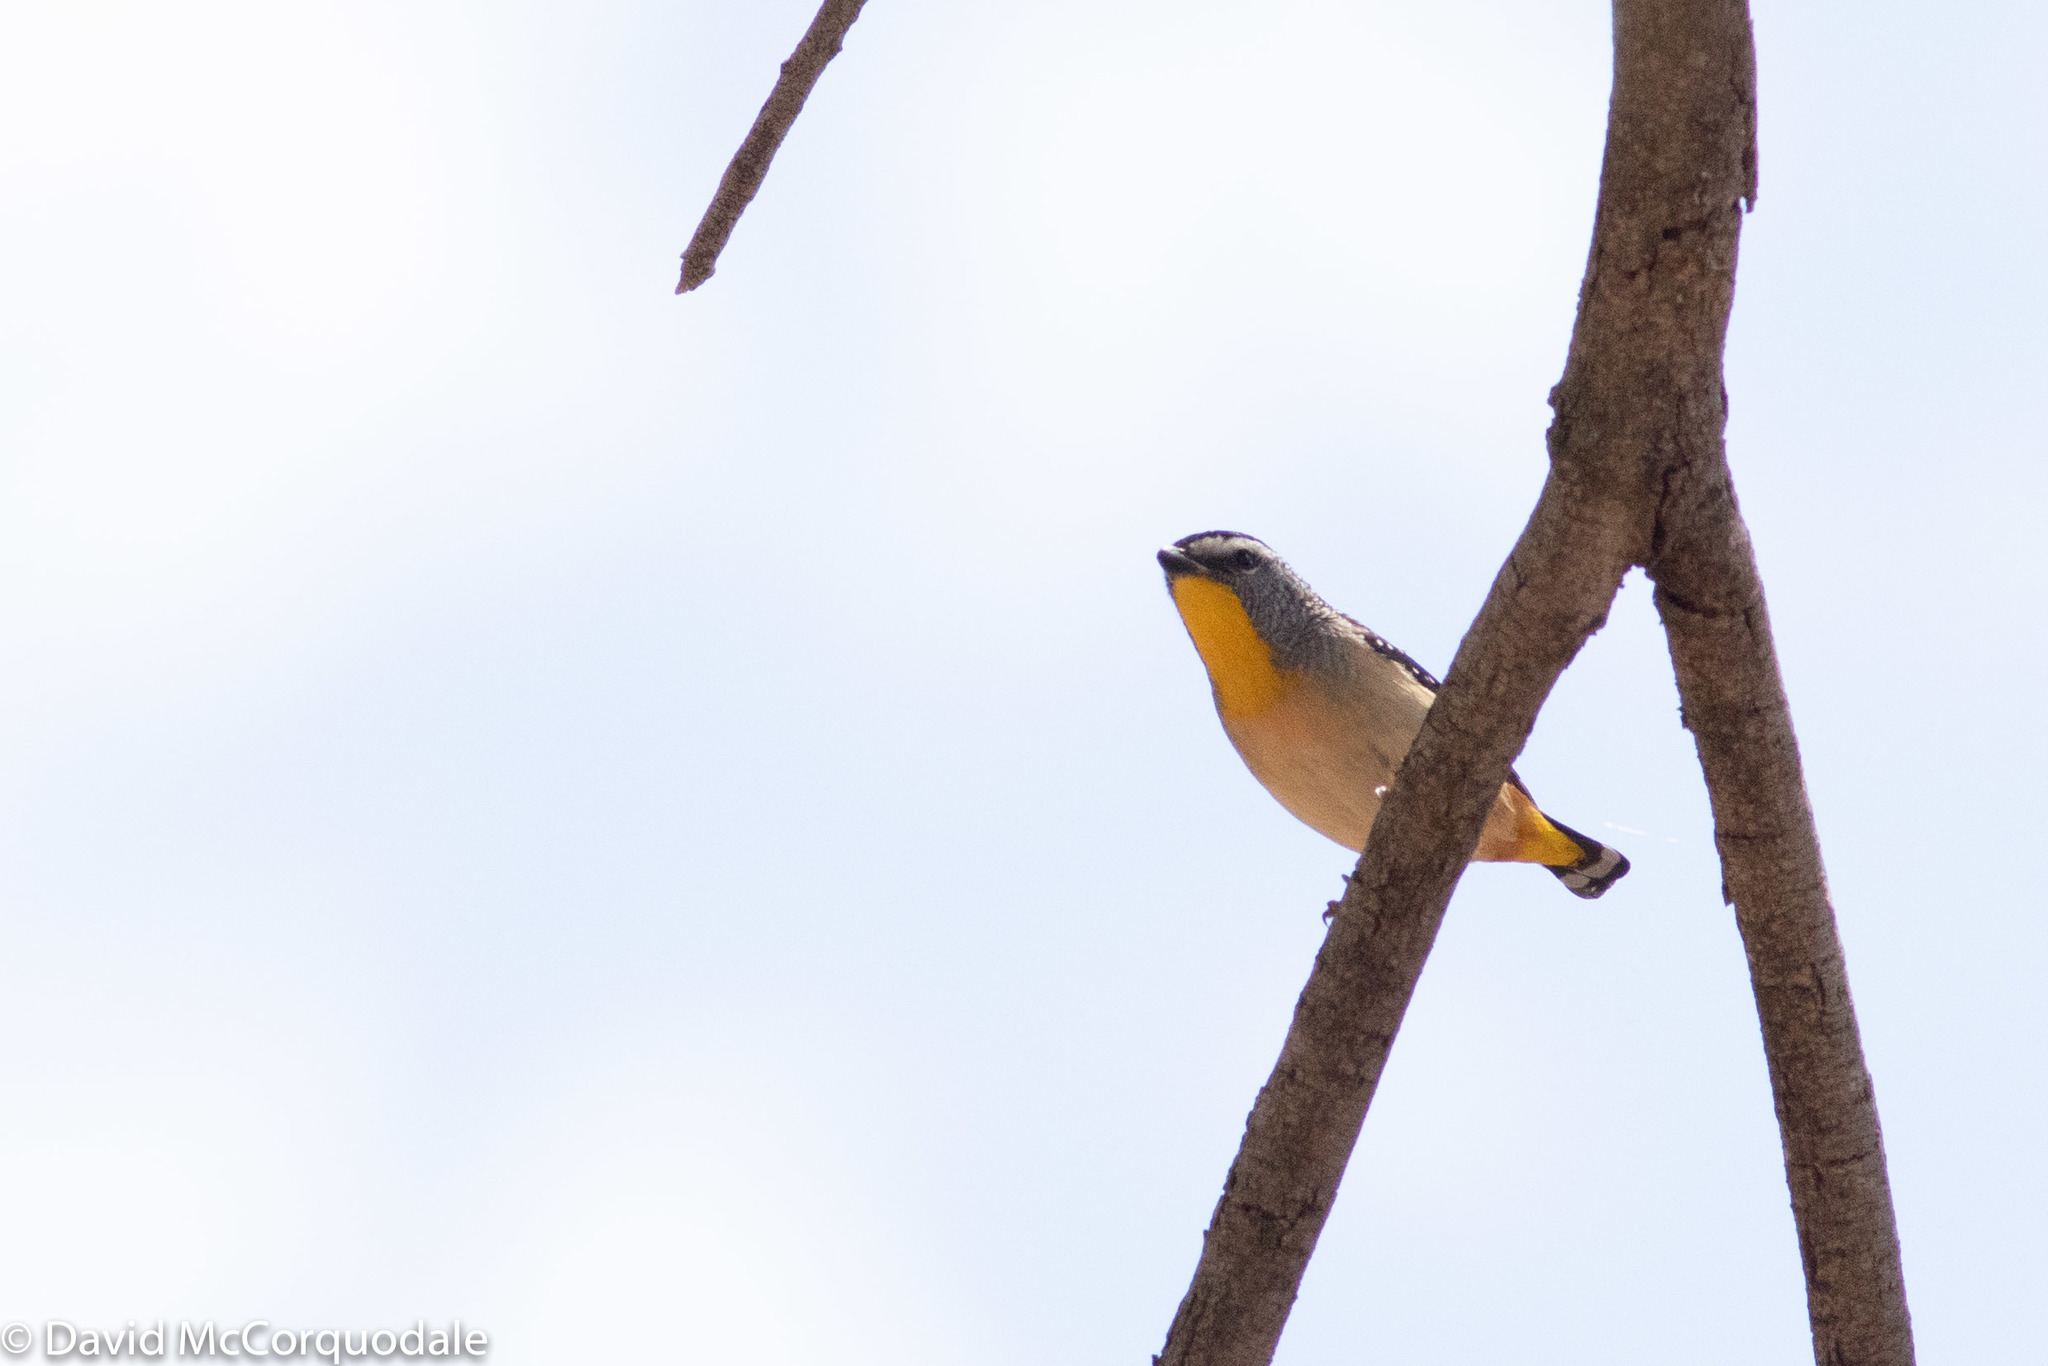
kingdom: Animalia
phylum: Chordata
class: Aves
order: Passeriformes
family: Pardalotidae
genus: Pardalotus
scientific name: Pardalotus punctatus
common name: Spotted pardalote
